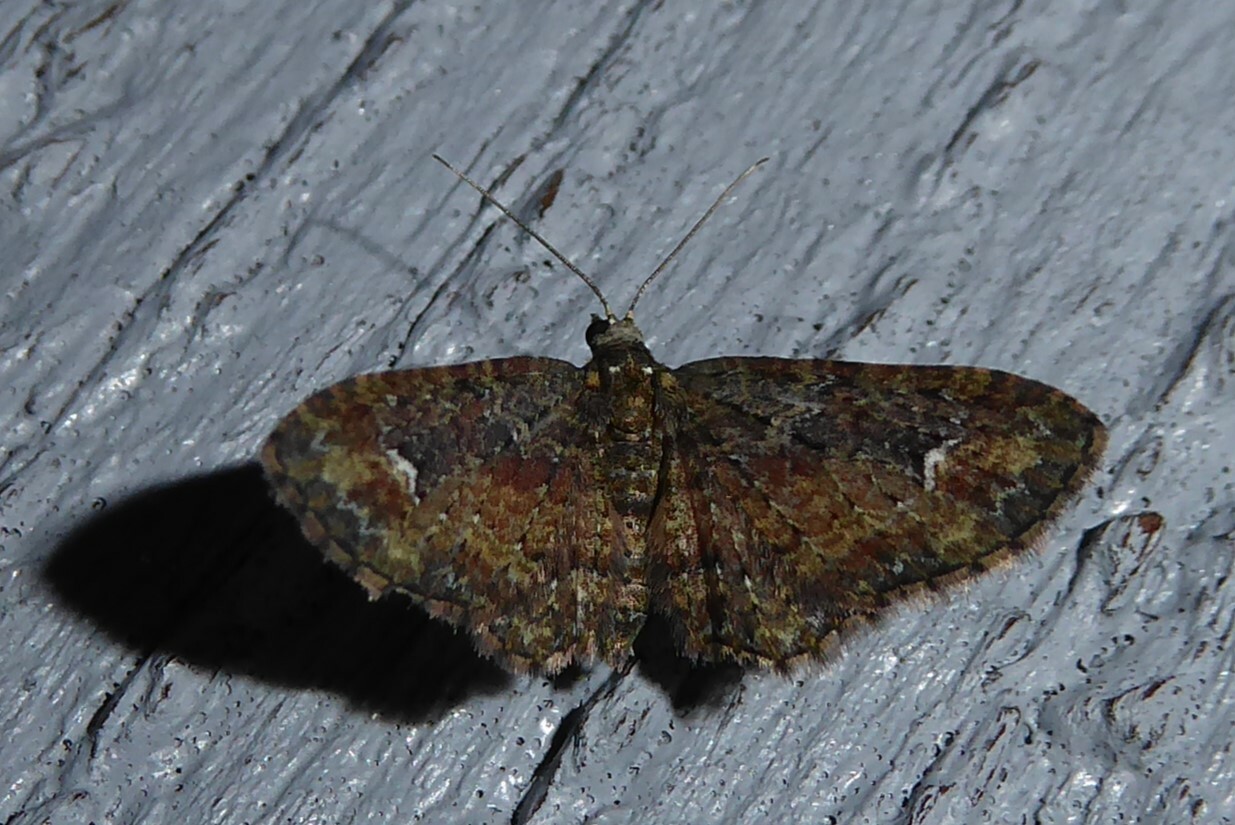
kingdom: Animalia
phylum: Arthropoda
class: Insecta
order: Lepidoptera
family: Geometridae
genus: Pasiphilodes
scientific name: Pasiphilodes testulata
